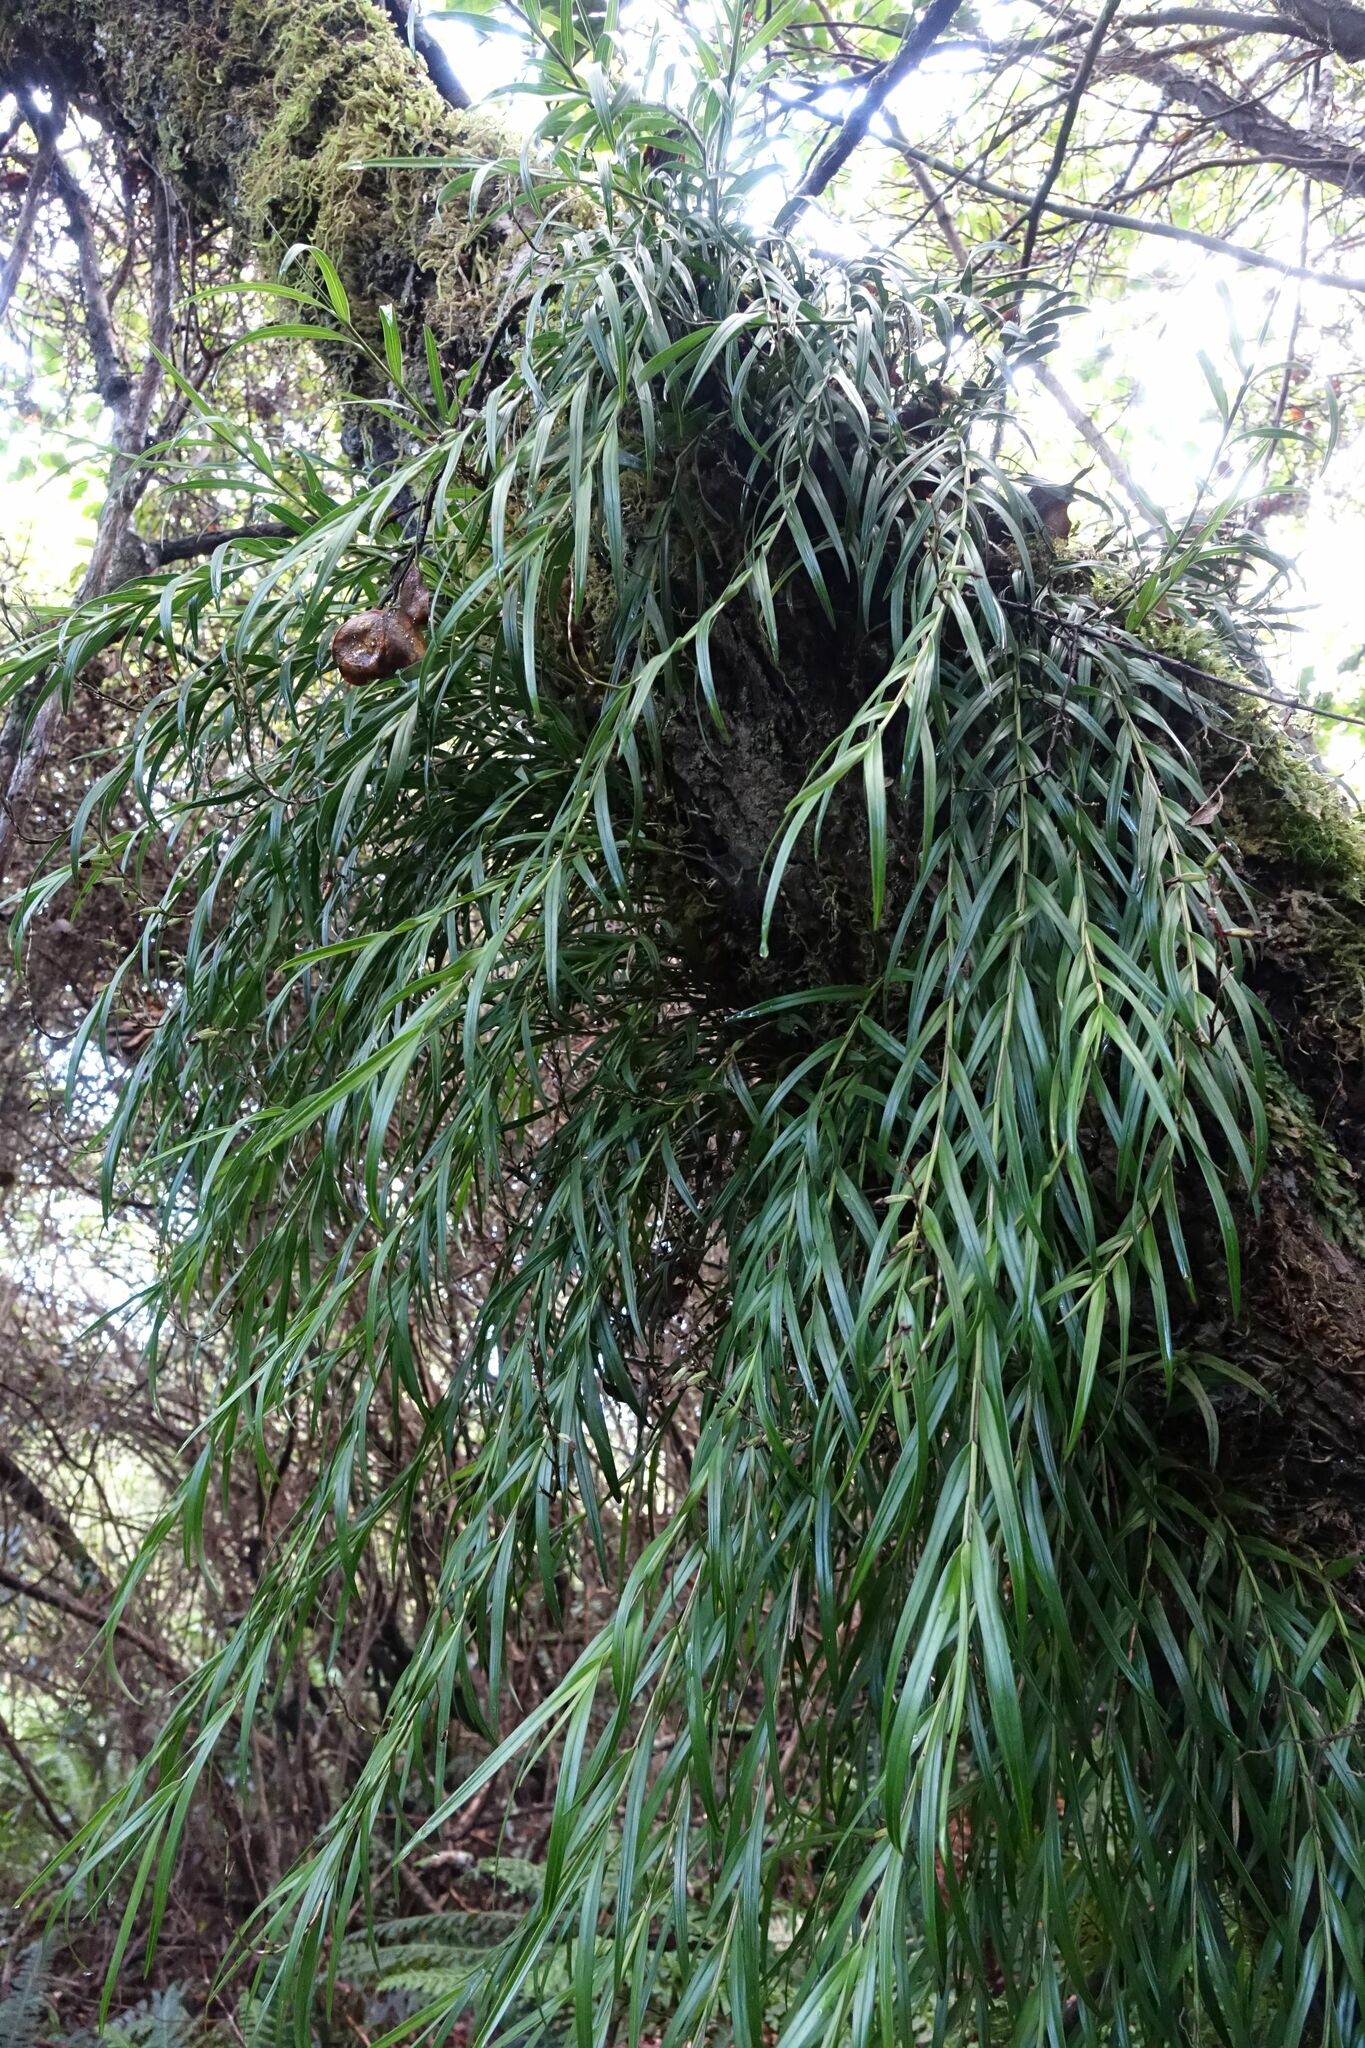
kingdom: Plantae
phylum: Tracheophyta
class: Liliopsida
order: Asparagales
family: Orchidaceae
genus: Earina
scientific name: Earina autumnalis
